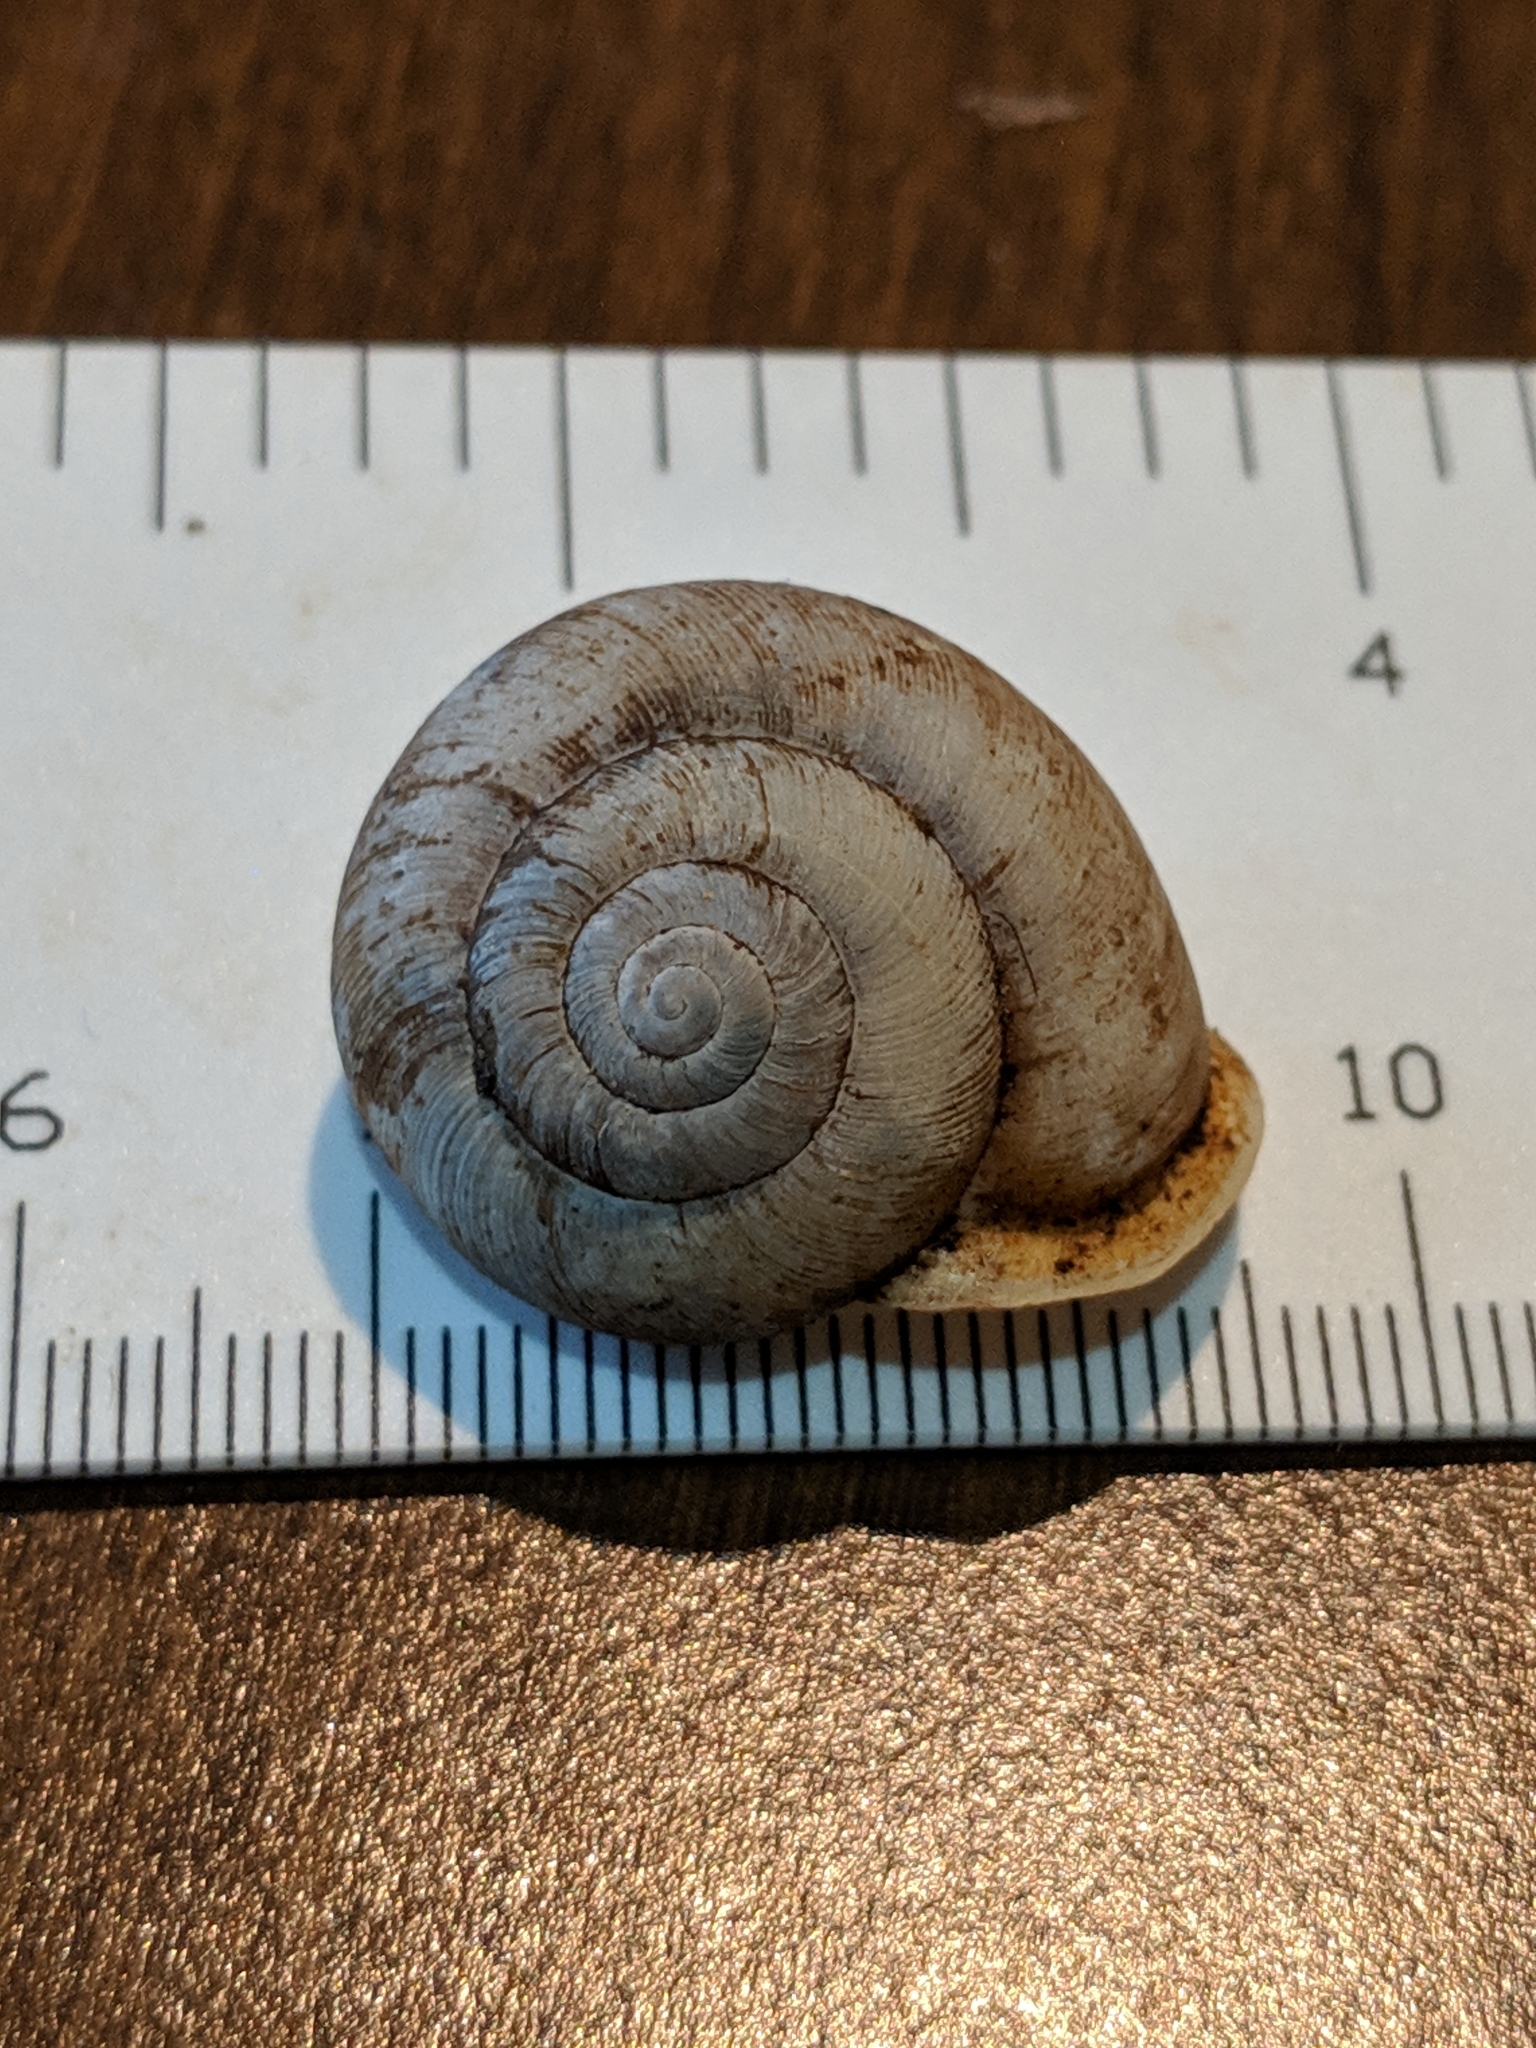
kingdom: Animalia
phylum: Mollusca
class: Gastropoda
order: Stylommatophora
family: Polygyridae
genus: Mesodon
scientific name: Mesodon zaletus
